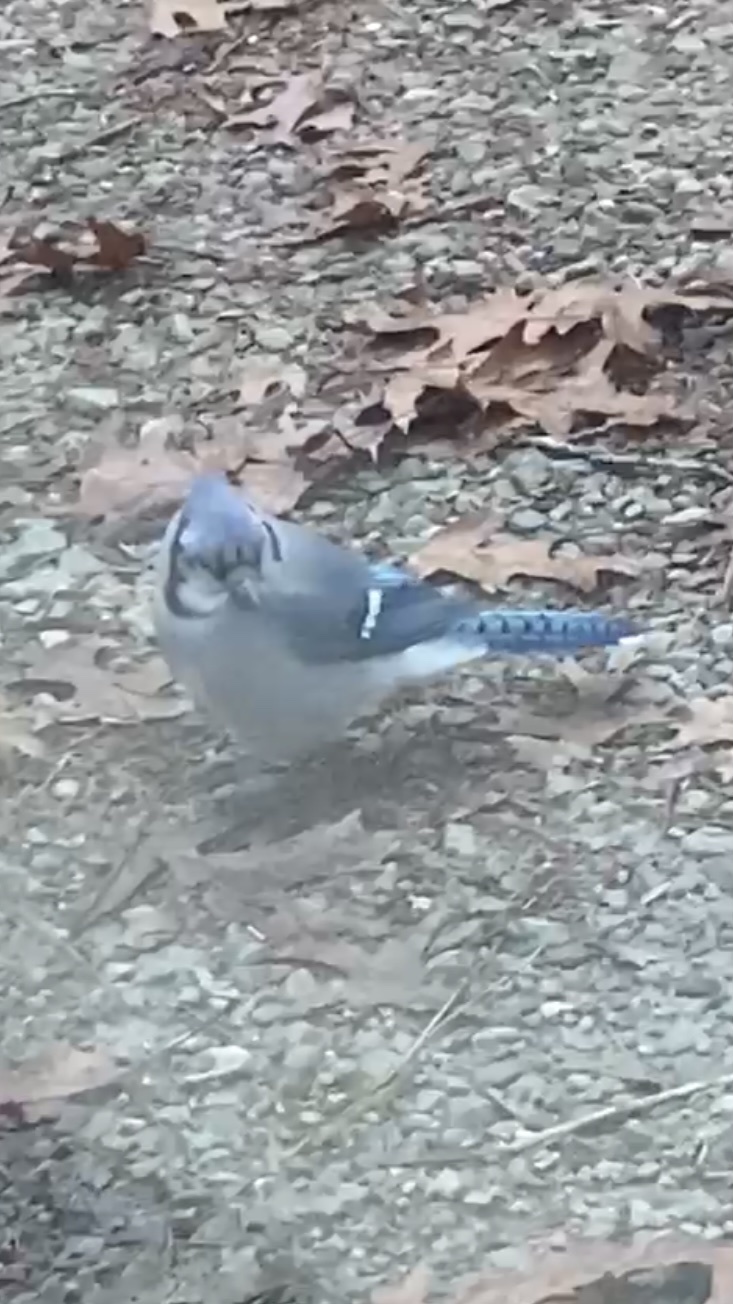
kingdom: Animalia
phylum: Chordata
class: Aves
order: Passeriformes
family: Corvidae
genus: Cyanocitta
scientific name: Cyanocitta cristata
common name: Blue jay
